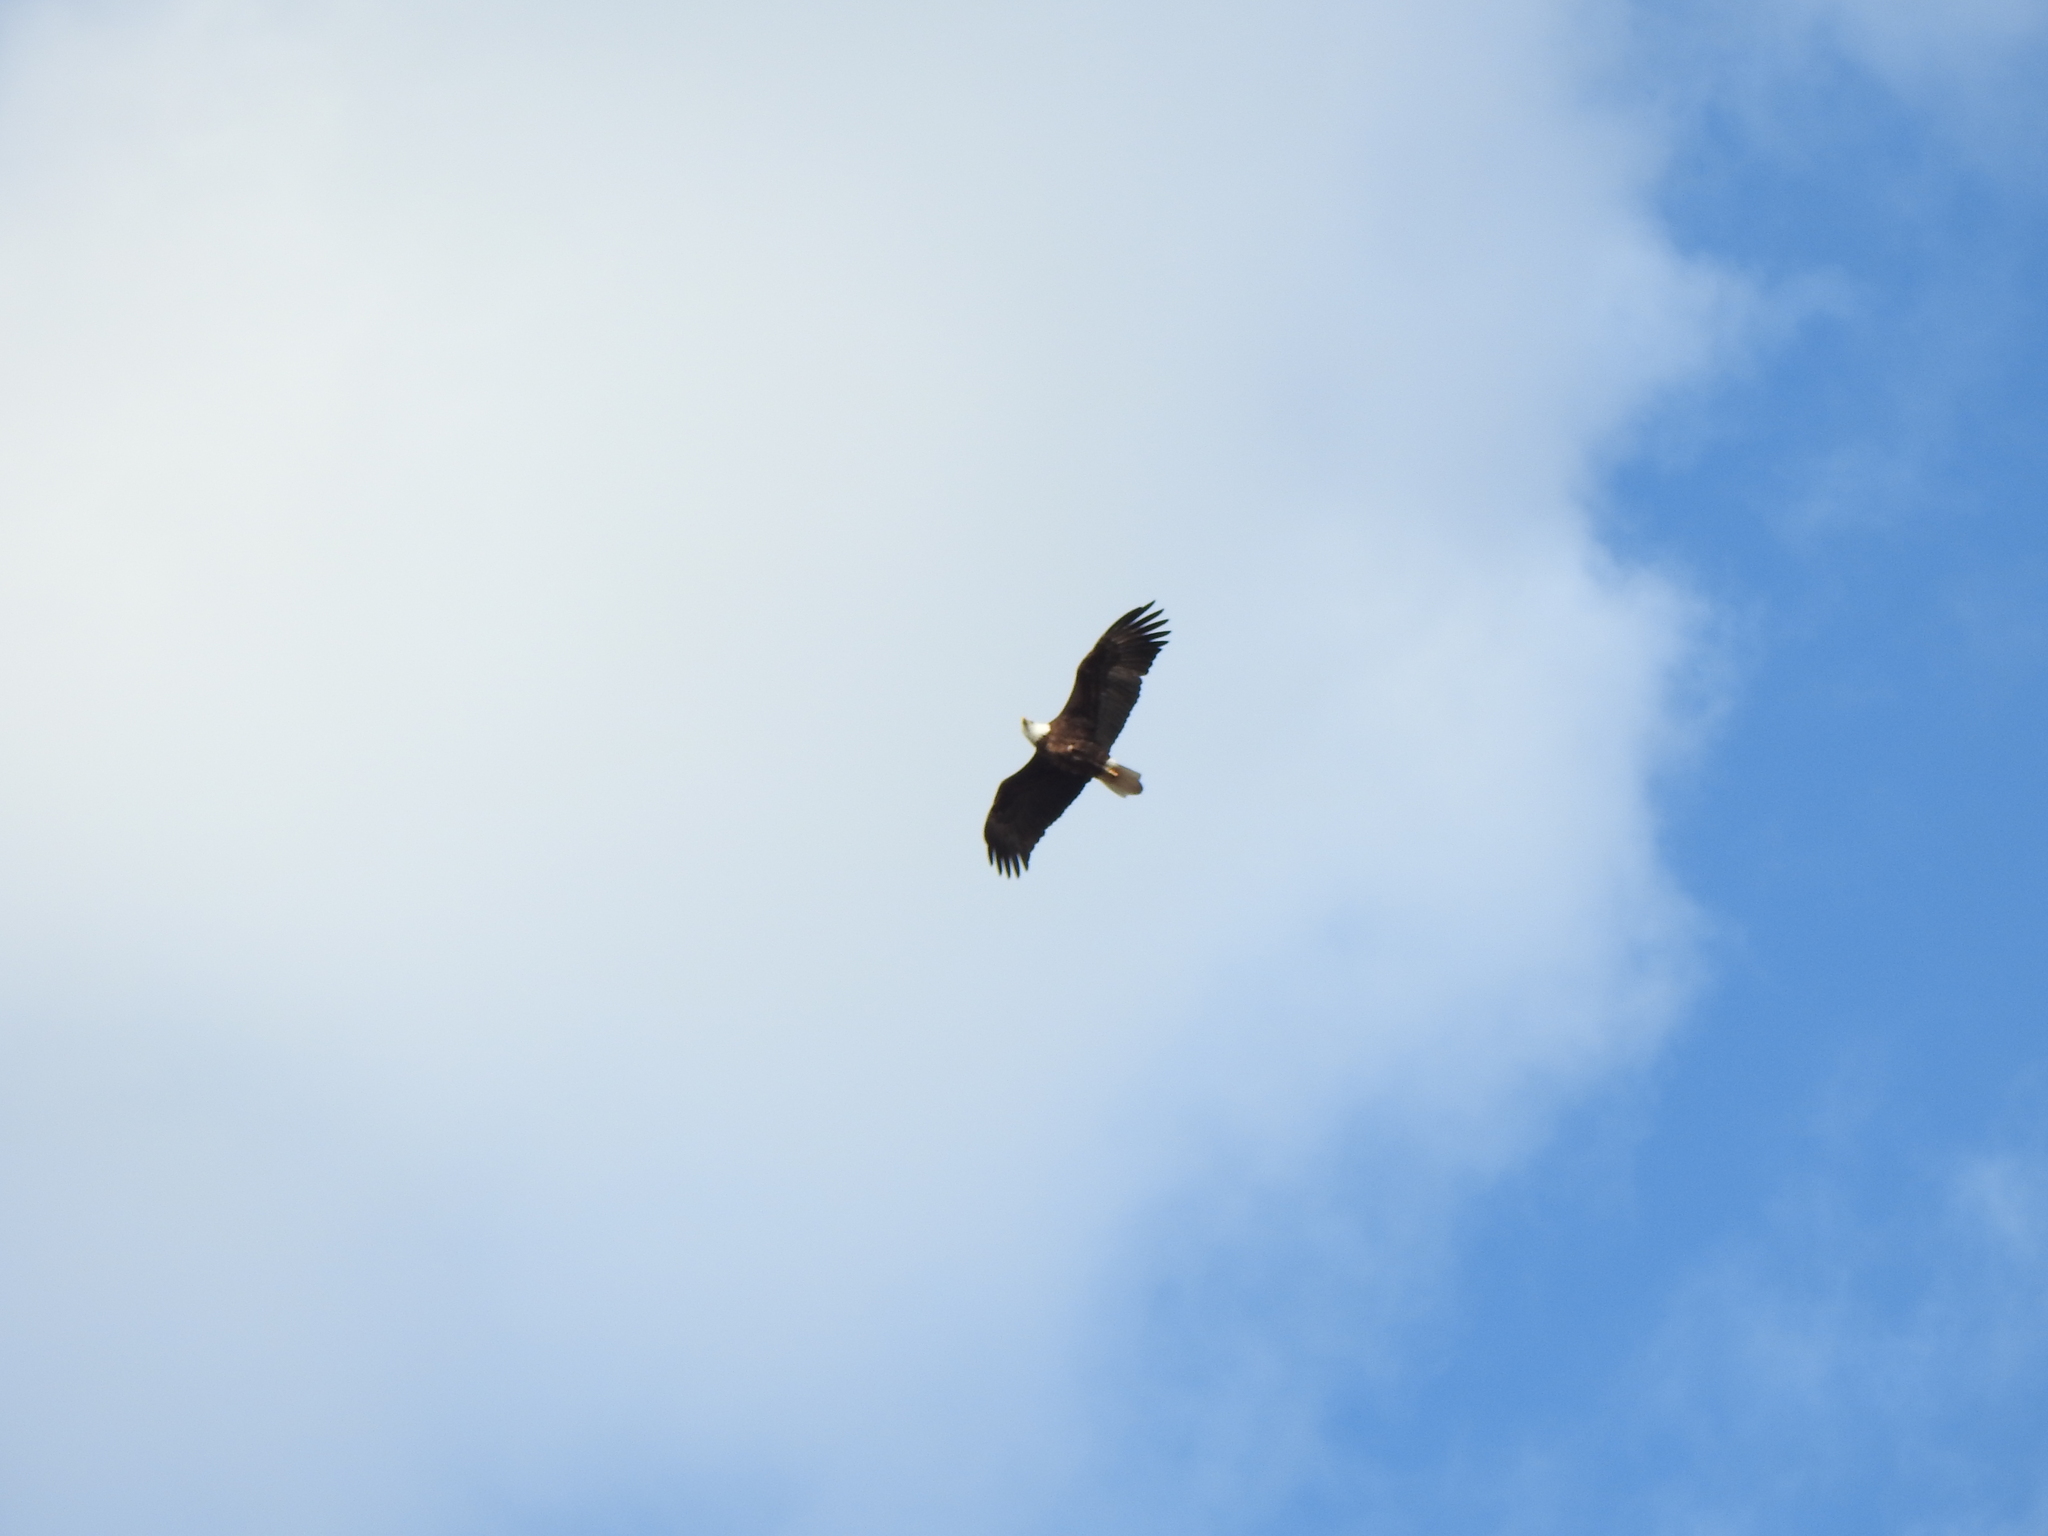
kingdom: Animalia
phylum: Chordata
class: Aves
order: Accipitriformes
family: Accipitridae
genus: Haliaeetus
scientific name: Haliaeetus leucocephalus
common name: Bald eagle
